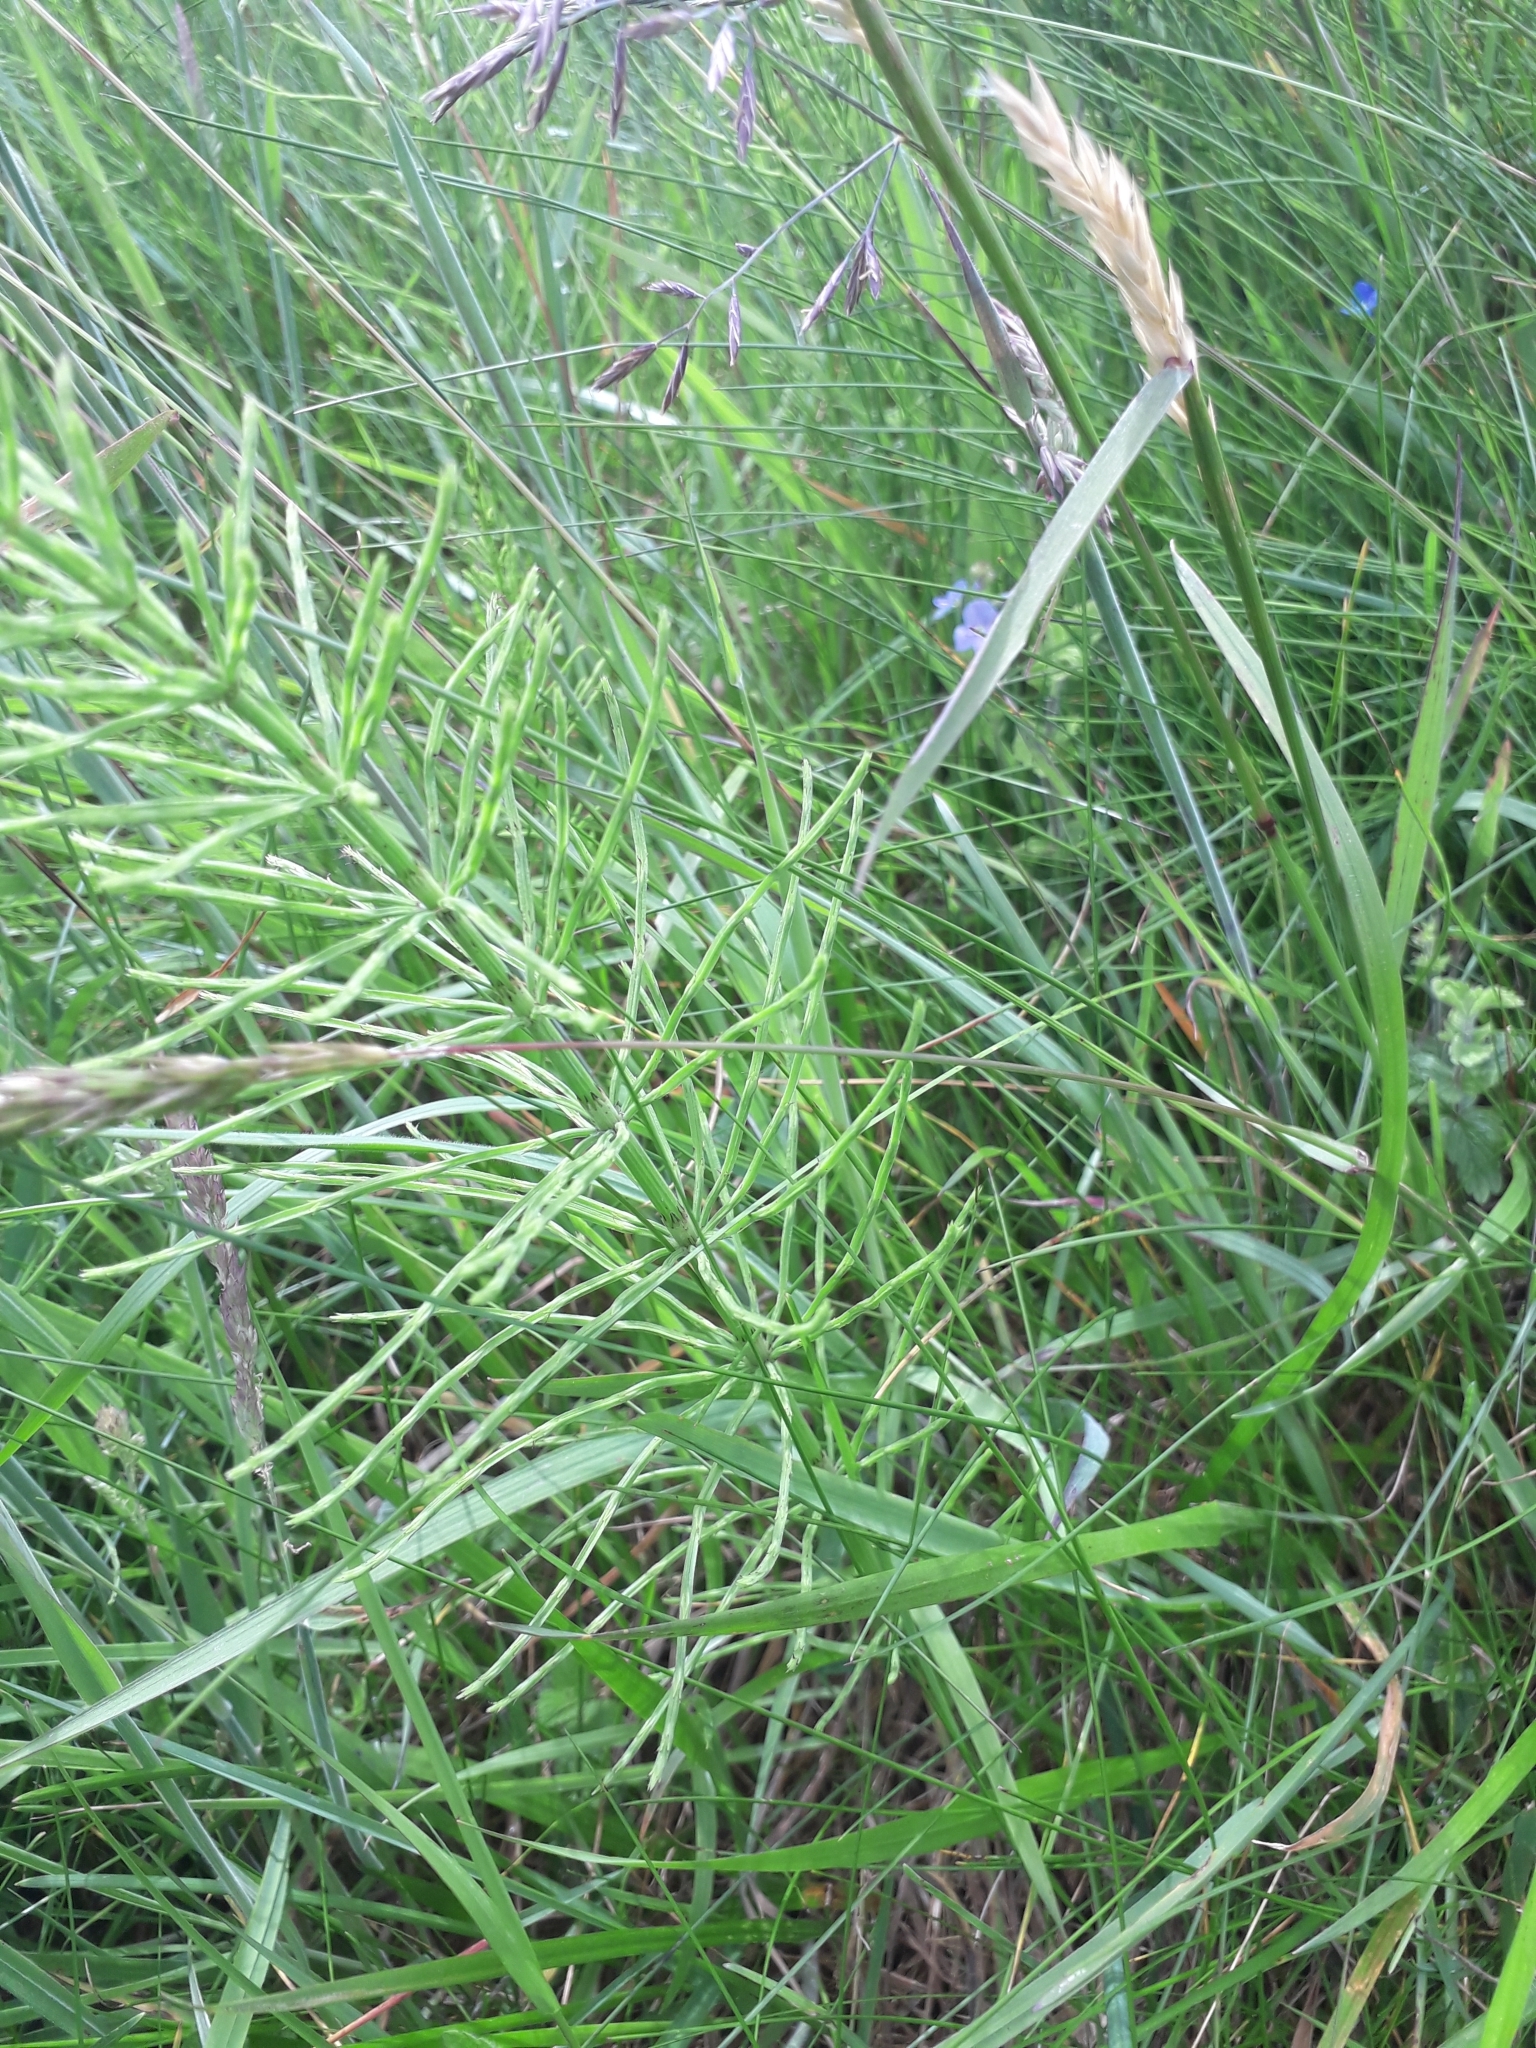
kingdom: Plantae
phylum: Tracheophyta
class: Polypodiopsida
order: Equisetales
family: Equisetaceae
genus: Equisetum
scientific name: Equisetum arvense
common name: Field horsetail
